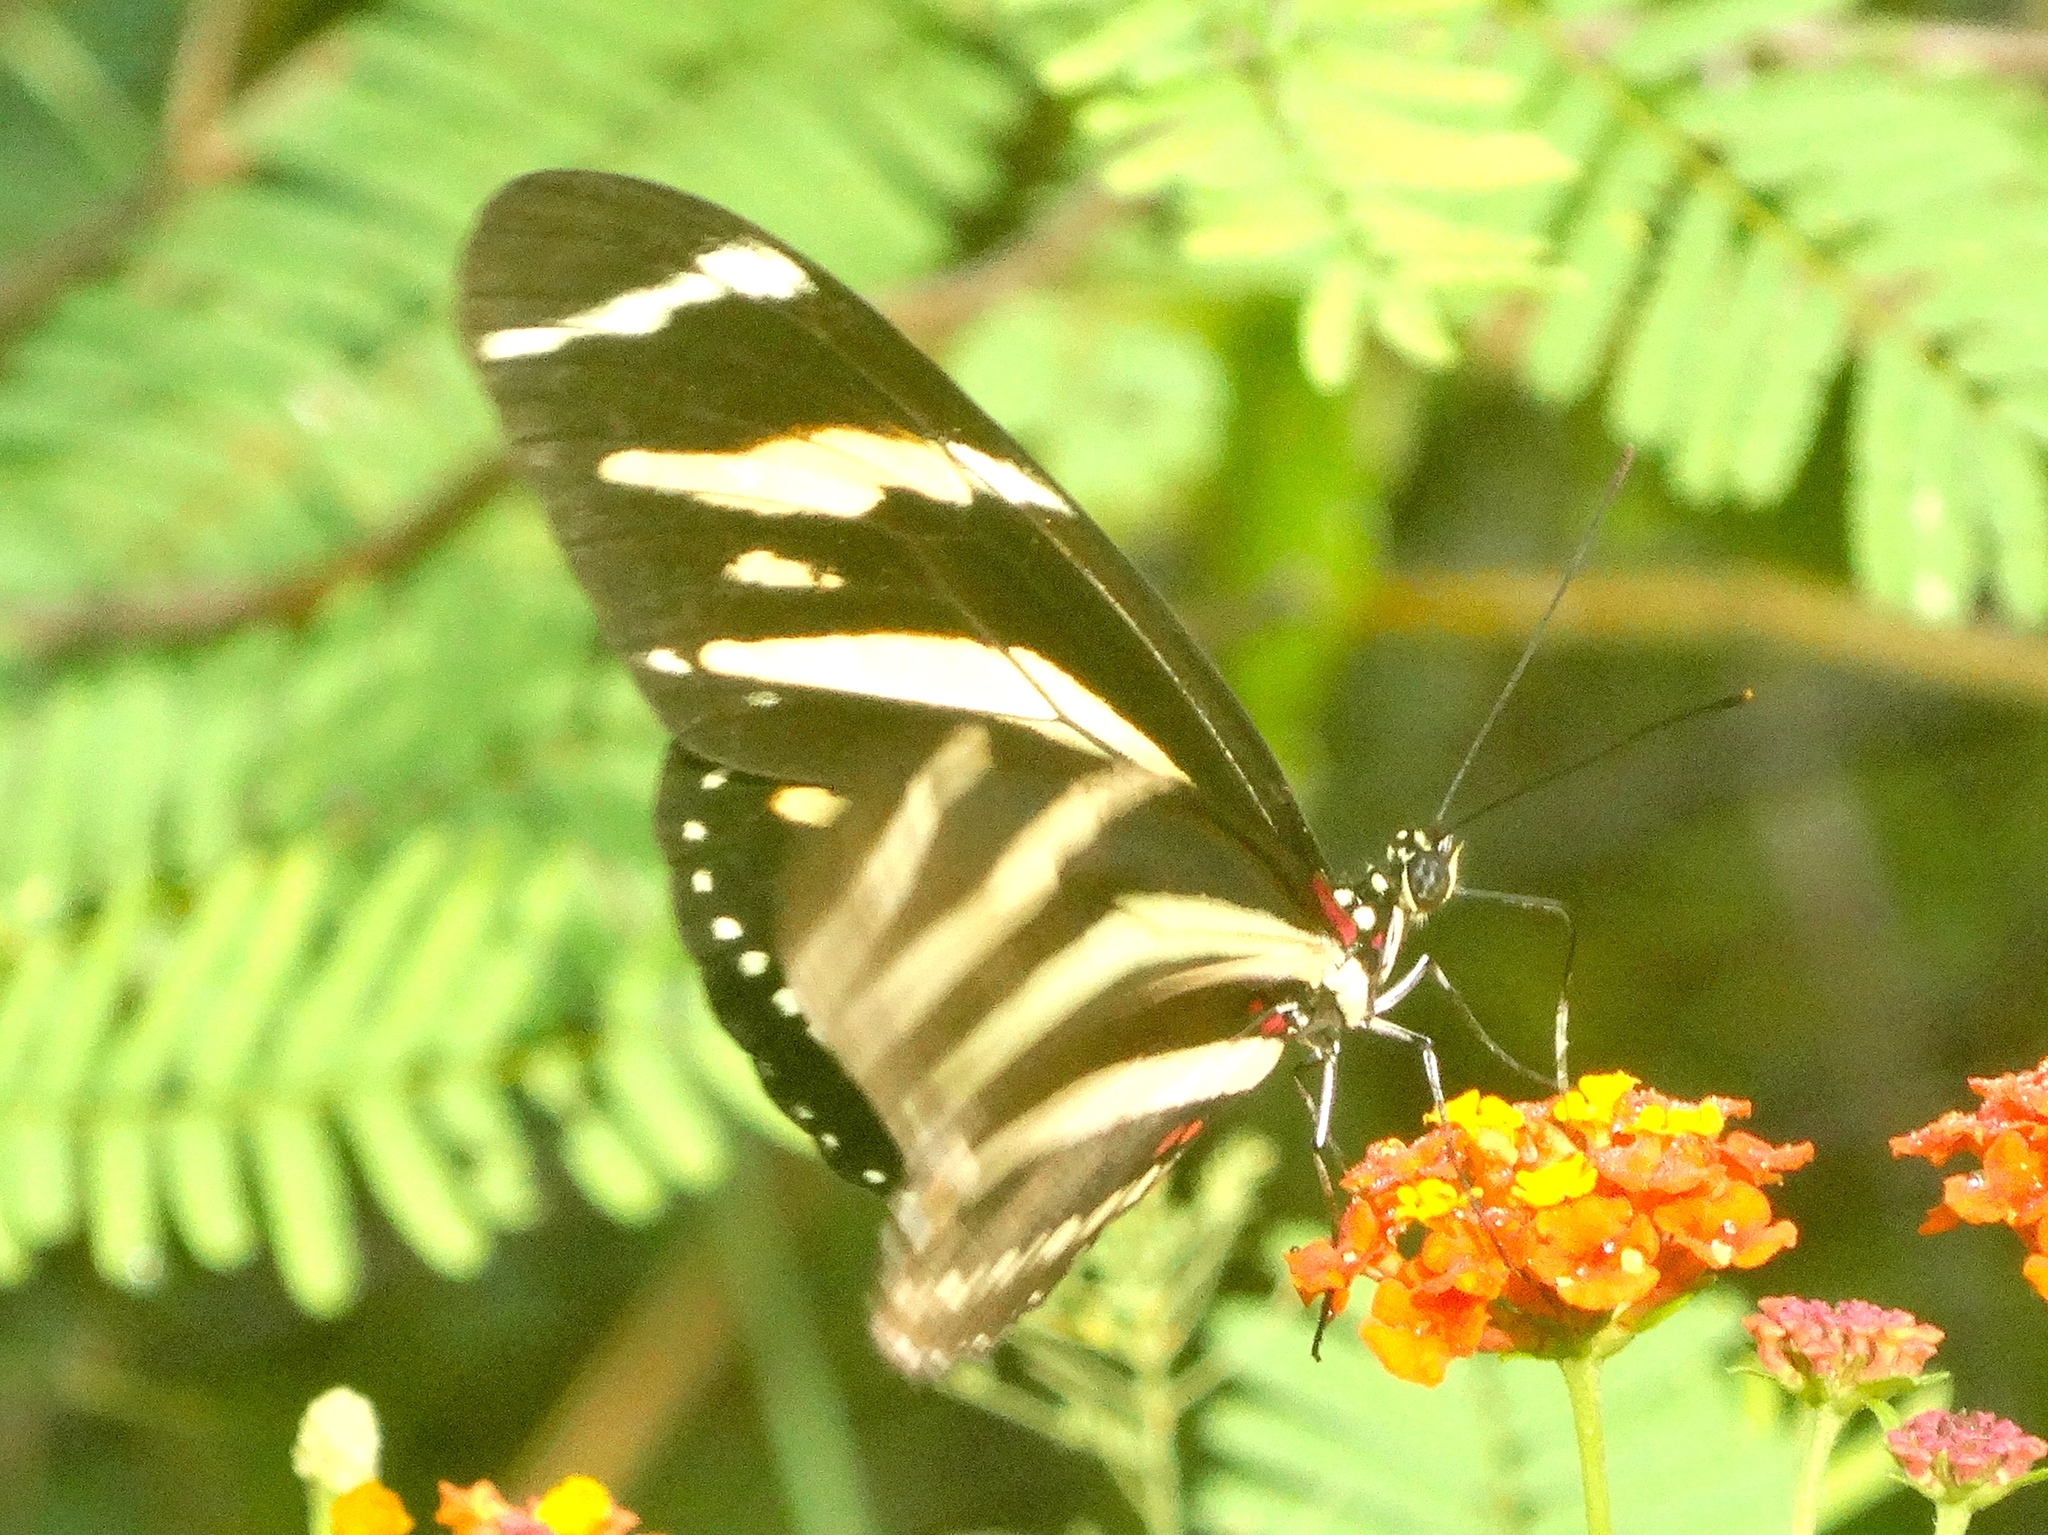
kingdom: Animalia
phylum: Arthropoda
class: Insecta
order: Lepidoptera
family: Nymphalidae
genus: Heliconius
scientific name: Heliconius charithonia
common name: Zebra long wing
